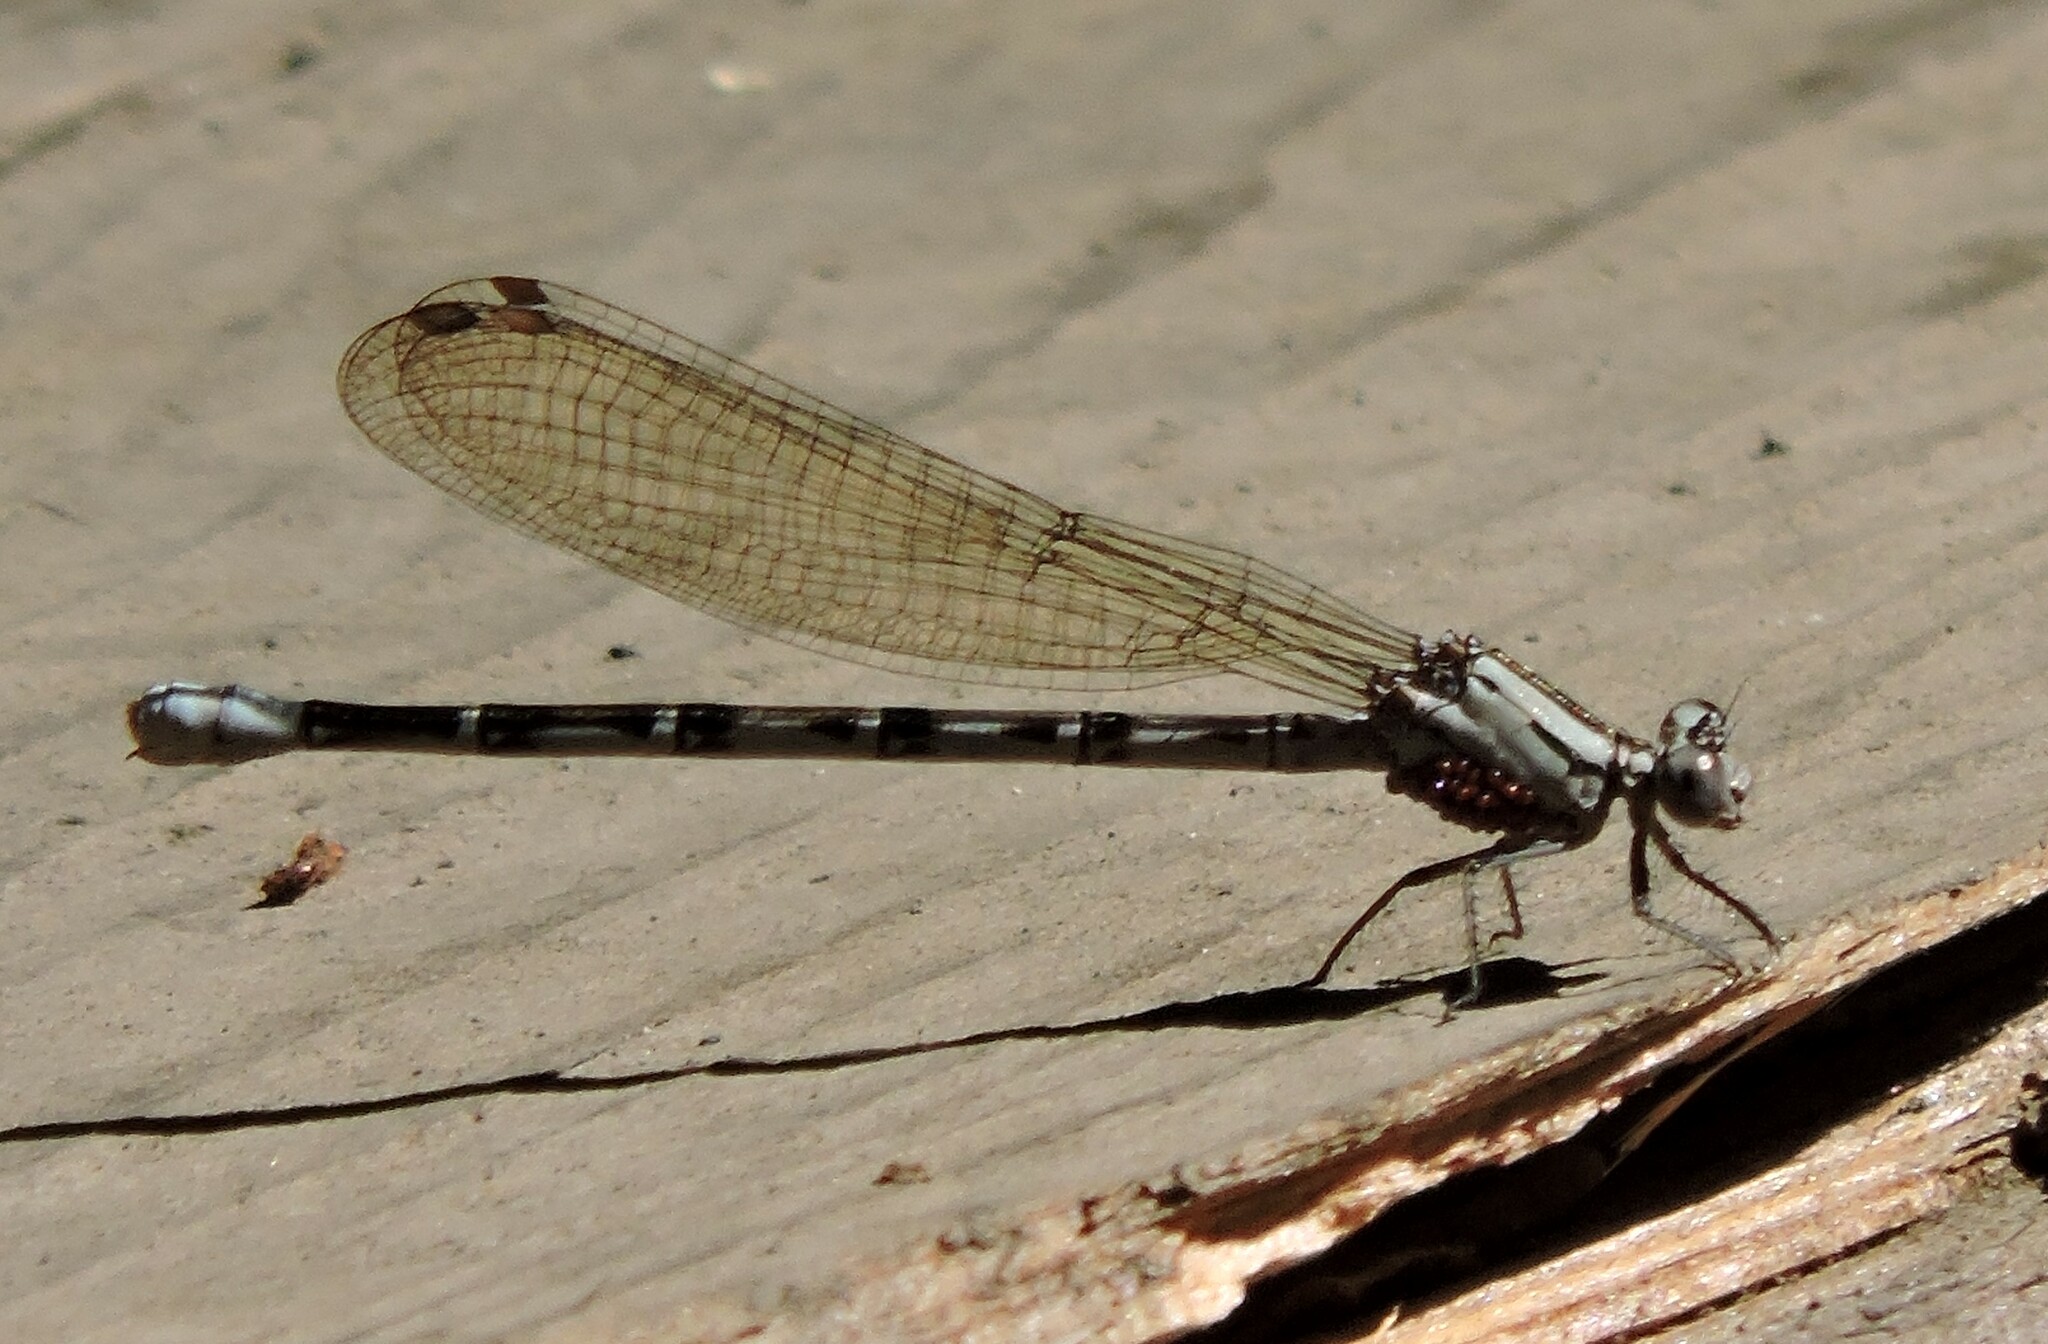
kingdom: Animalia
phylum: Arthropoda
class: Insecta
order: Odonata
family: Coenagrionidae
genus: Argia
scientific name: Argia vivida
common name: Vivid dancer
